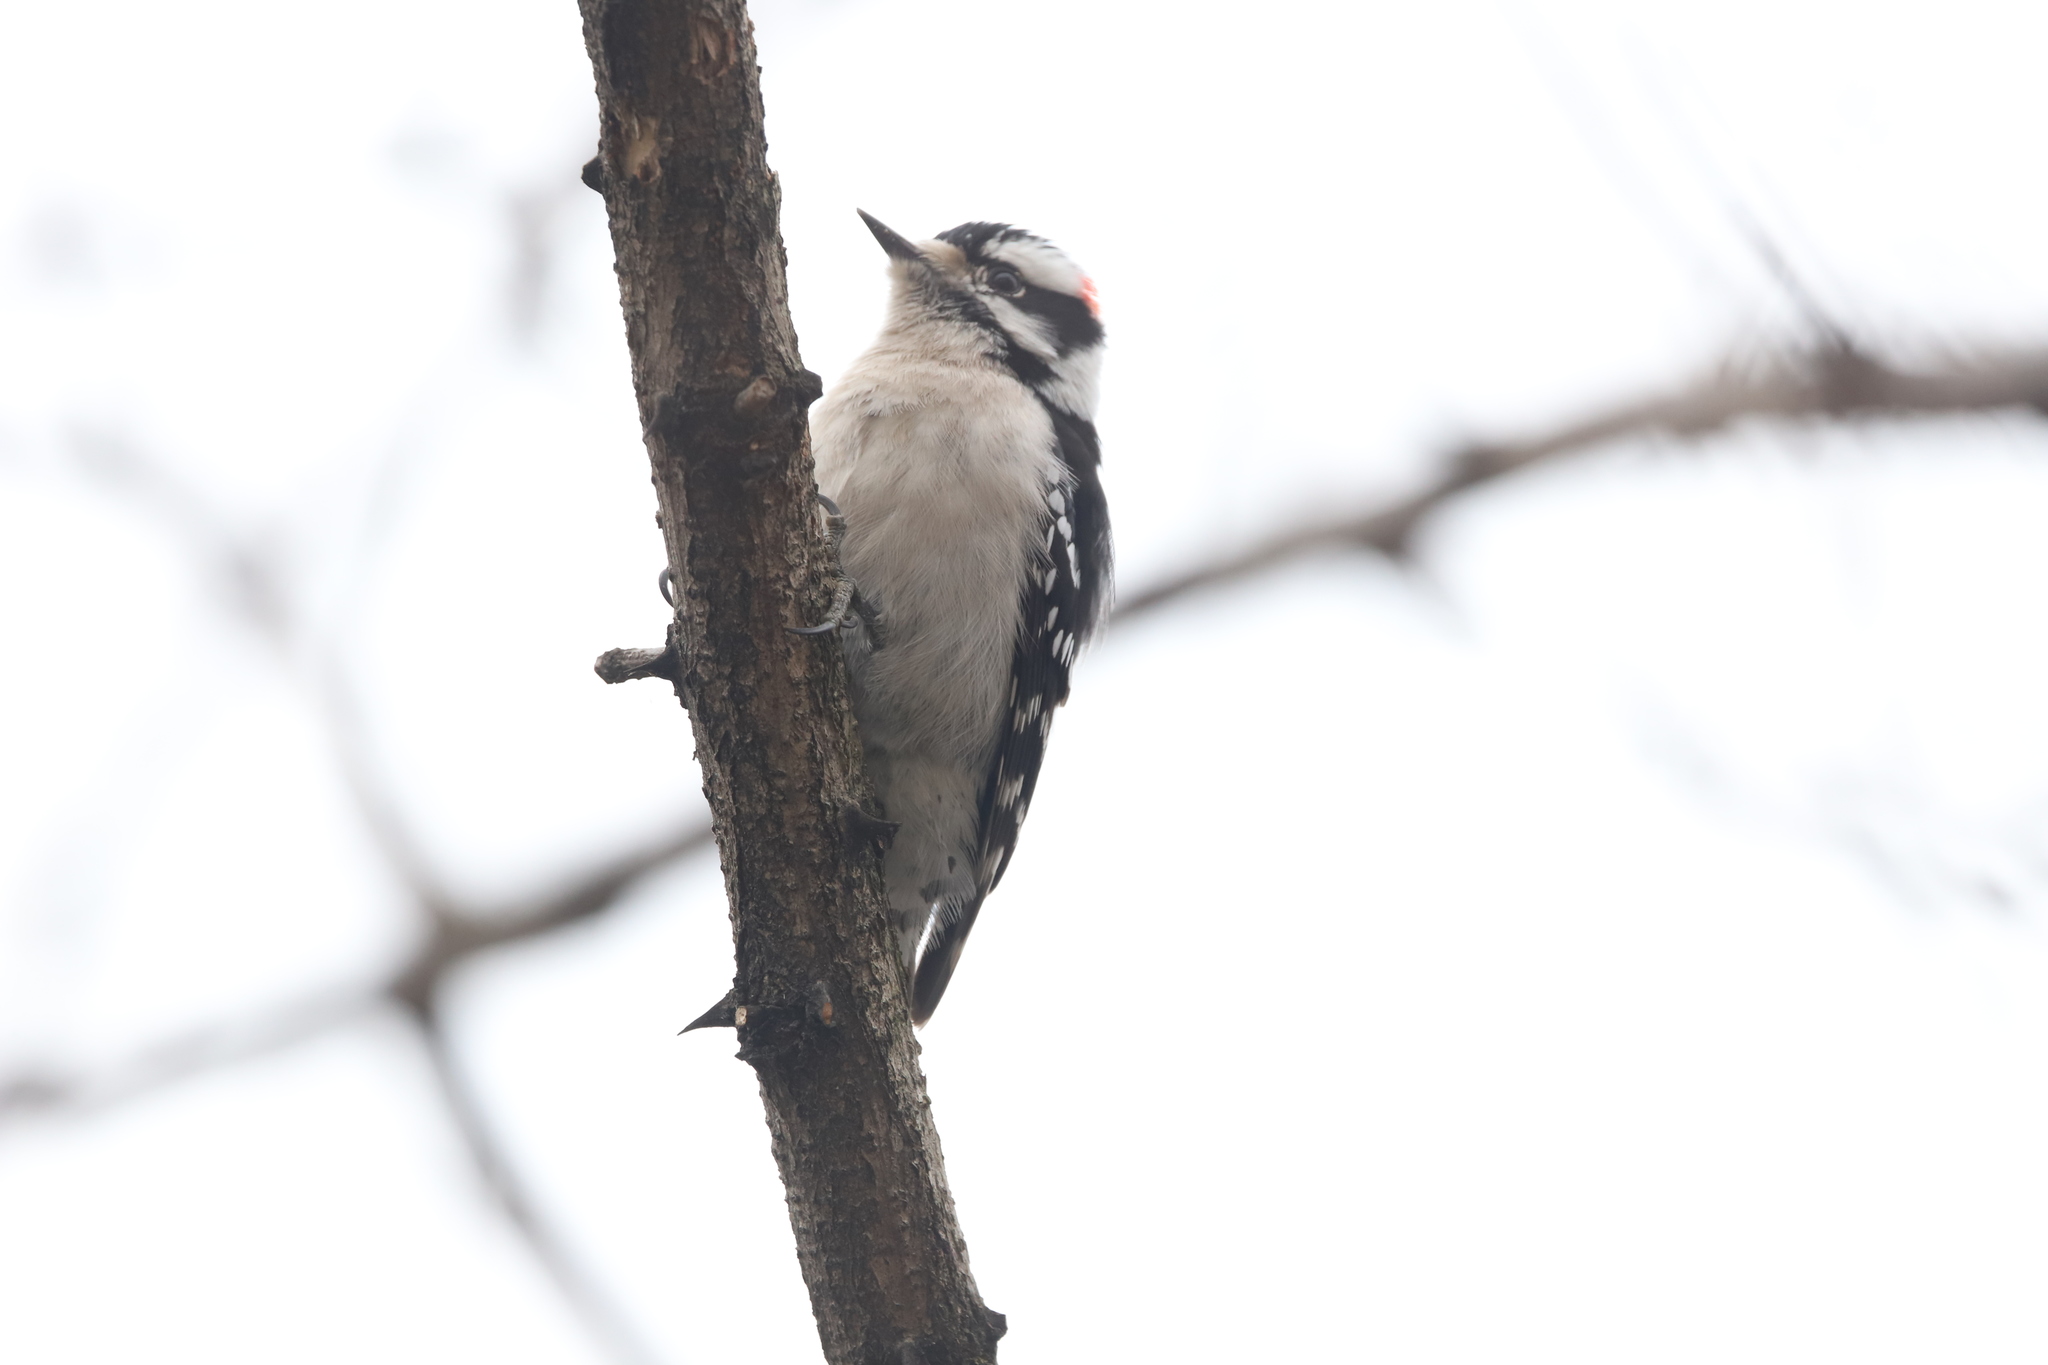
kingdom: Animalia
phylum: Chordata
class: Aves
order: Piciformes
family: Picidae
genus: Dryobates
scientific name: Dryobates pubescens
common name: Downy woodpecker
